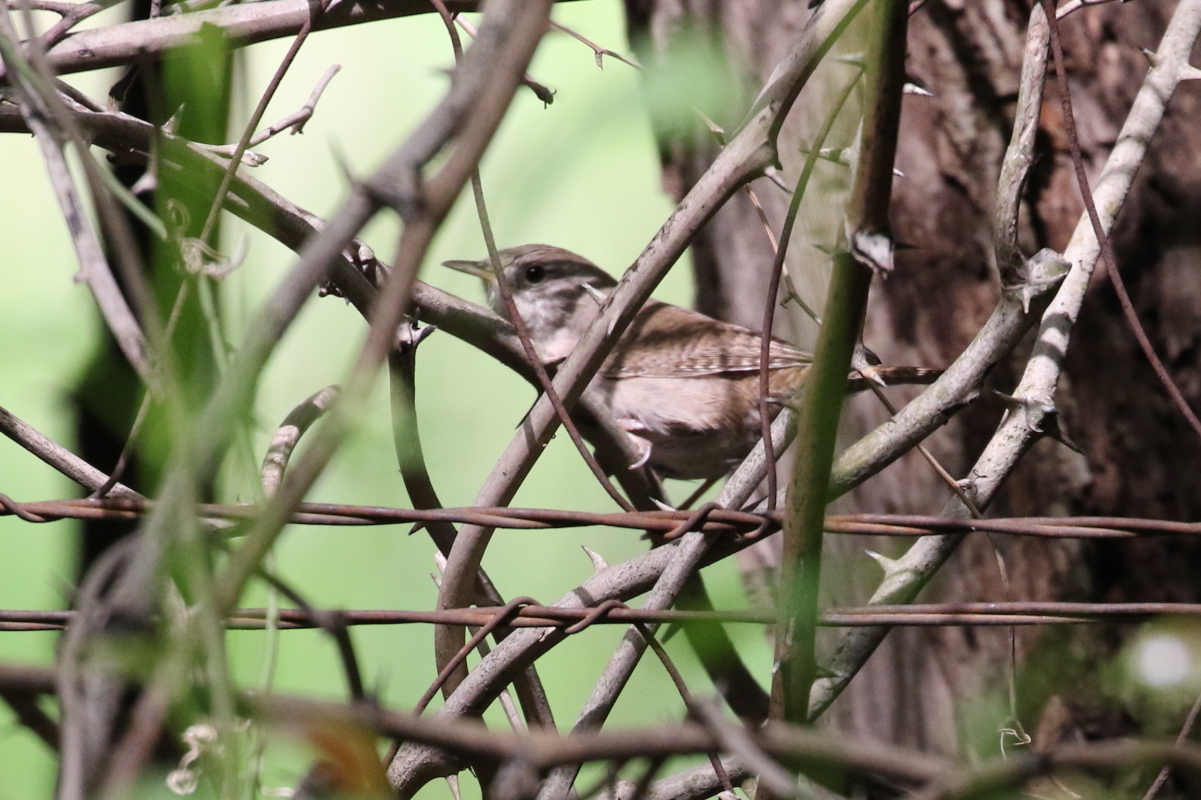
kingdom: Animalia
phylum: Chordata
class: Aves
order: Passeriformes
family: Troglodytidae
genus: Troglodytes
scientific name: Troglodytes aedon
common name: House wren
